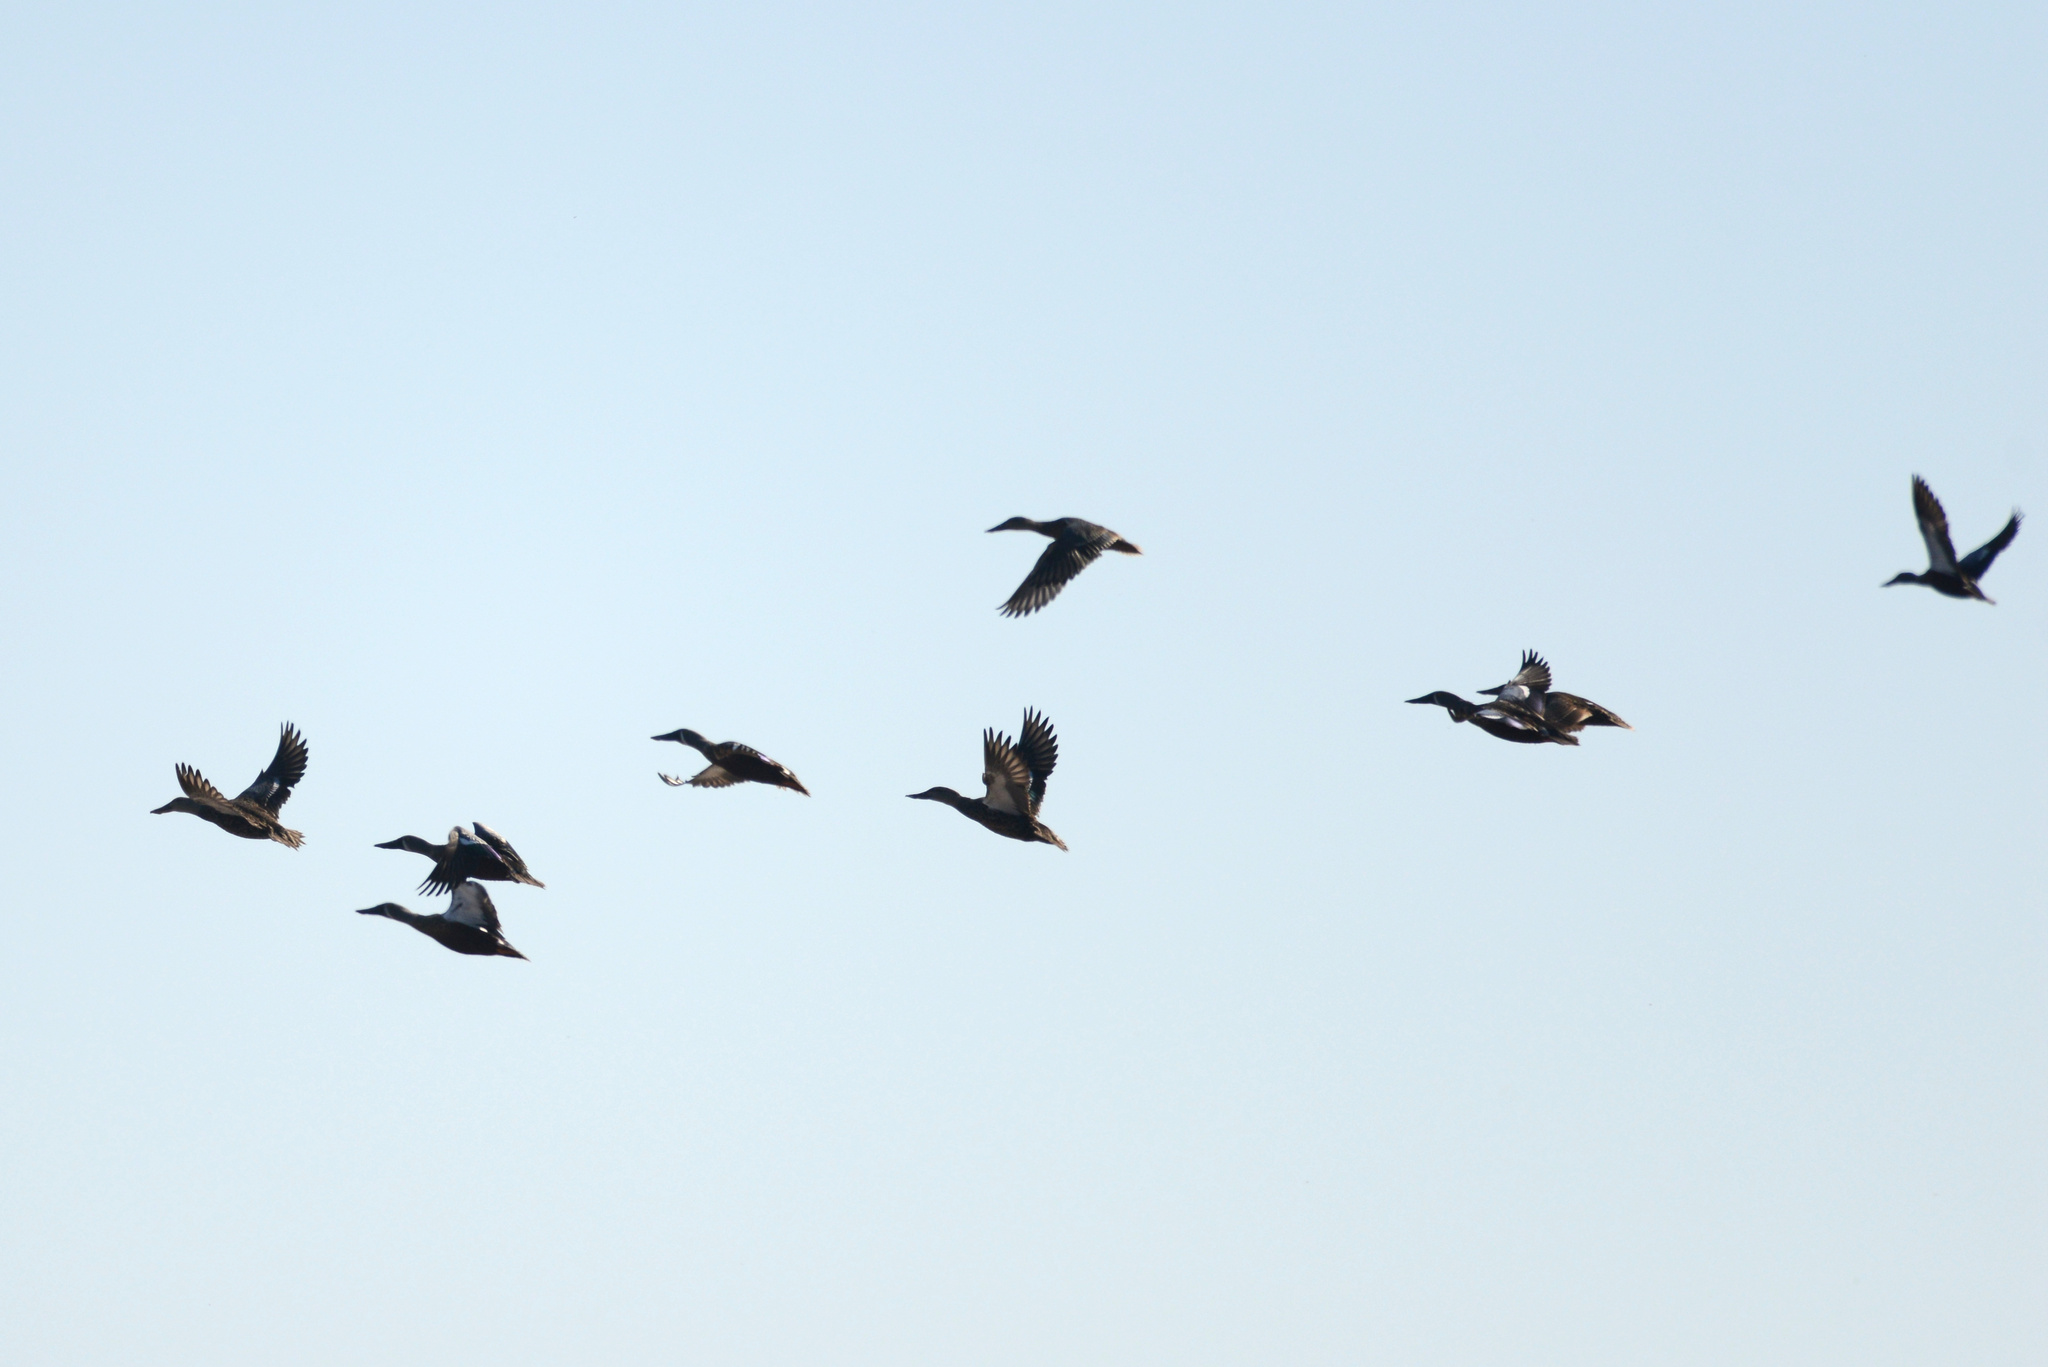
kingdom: Animalia
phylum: Chordata
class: Aves
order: Anseriformes
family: Anatidae
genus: Spatula
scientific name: Spatula rhynchotis
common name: Australian shoveler
